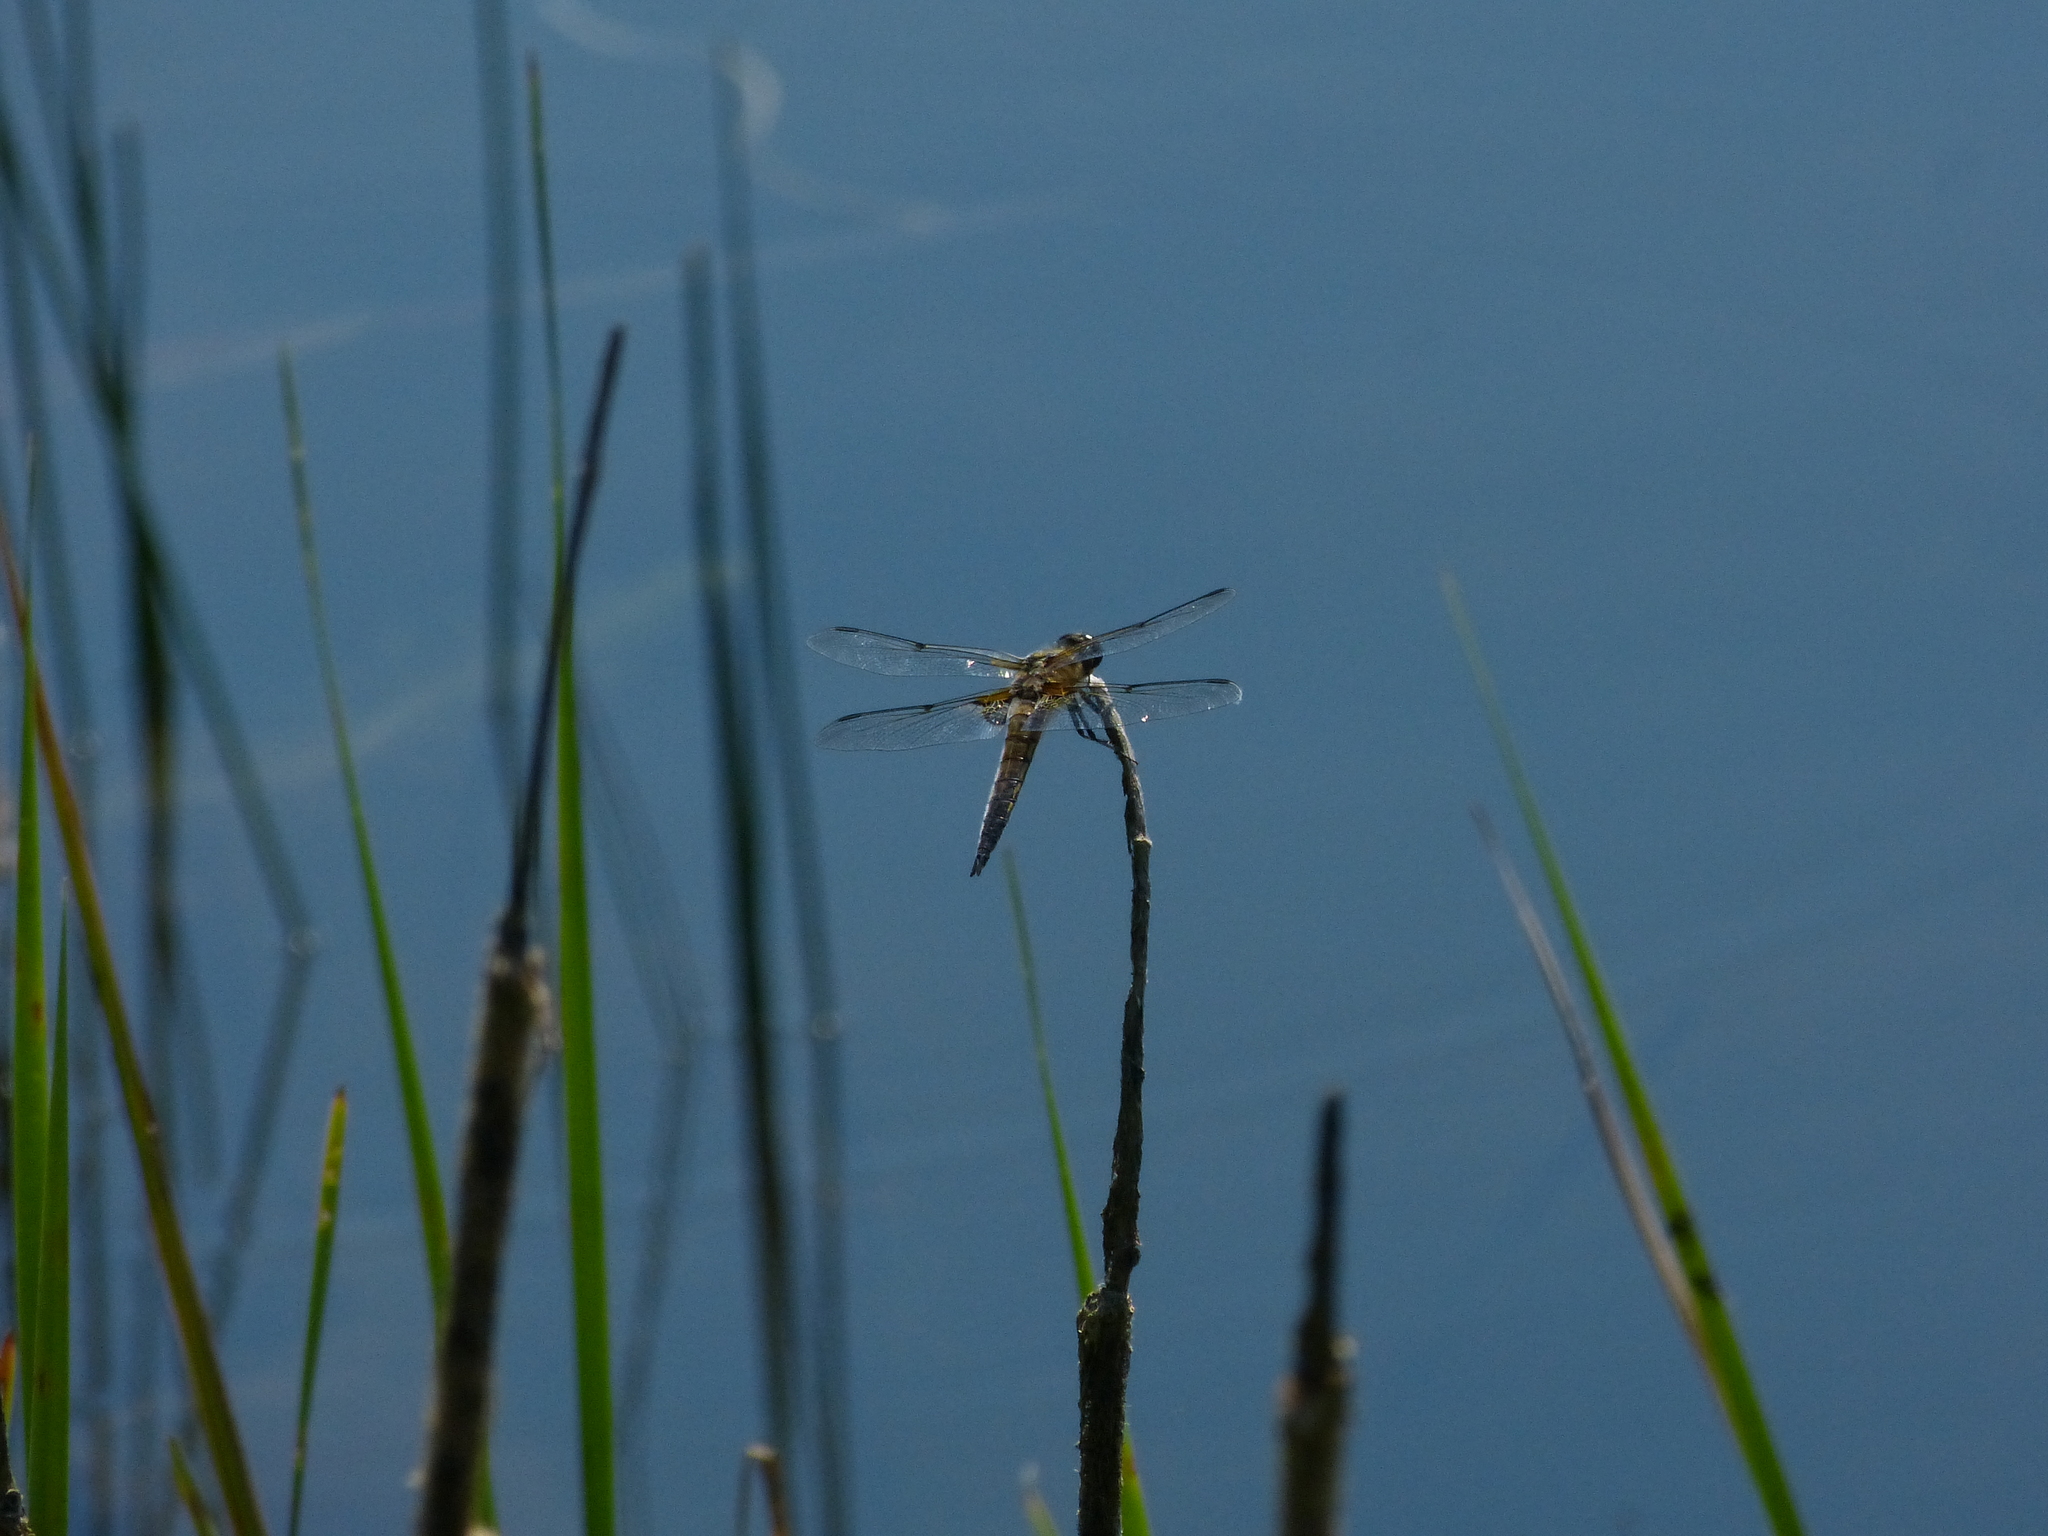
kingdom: Animalia
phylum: Arthropoda
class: Insecta
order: Odonata
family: Libellulidae
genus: Libellula
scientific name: Libellula quadrimaculata
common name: Four-spotted chaser
